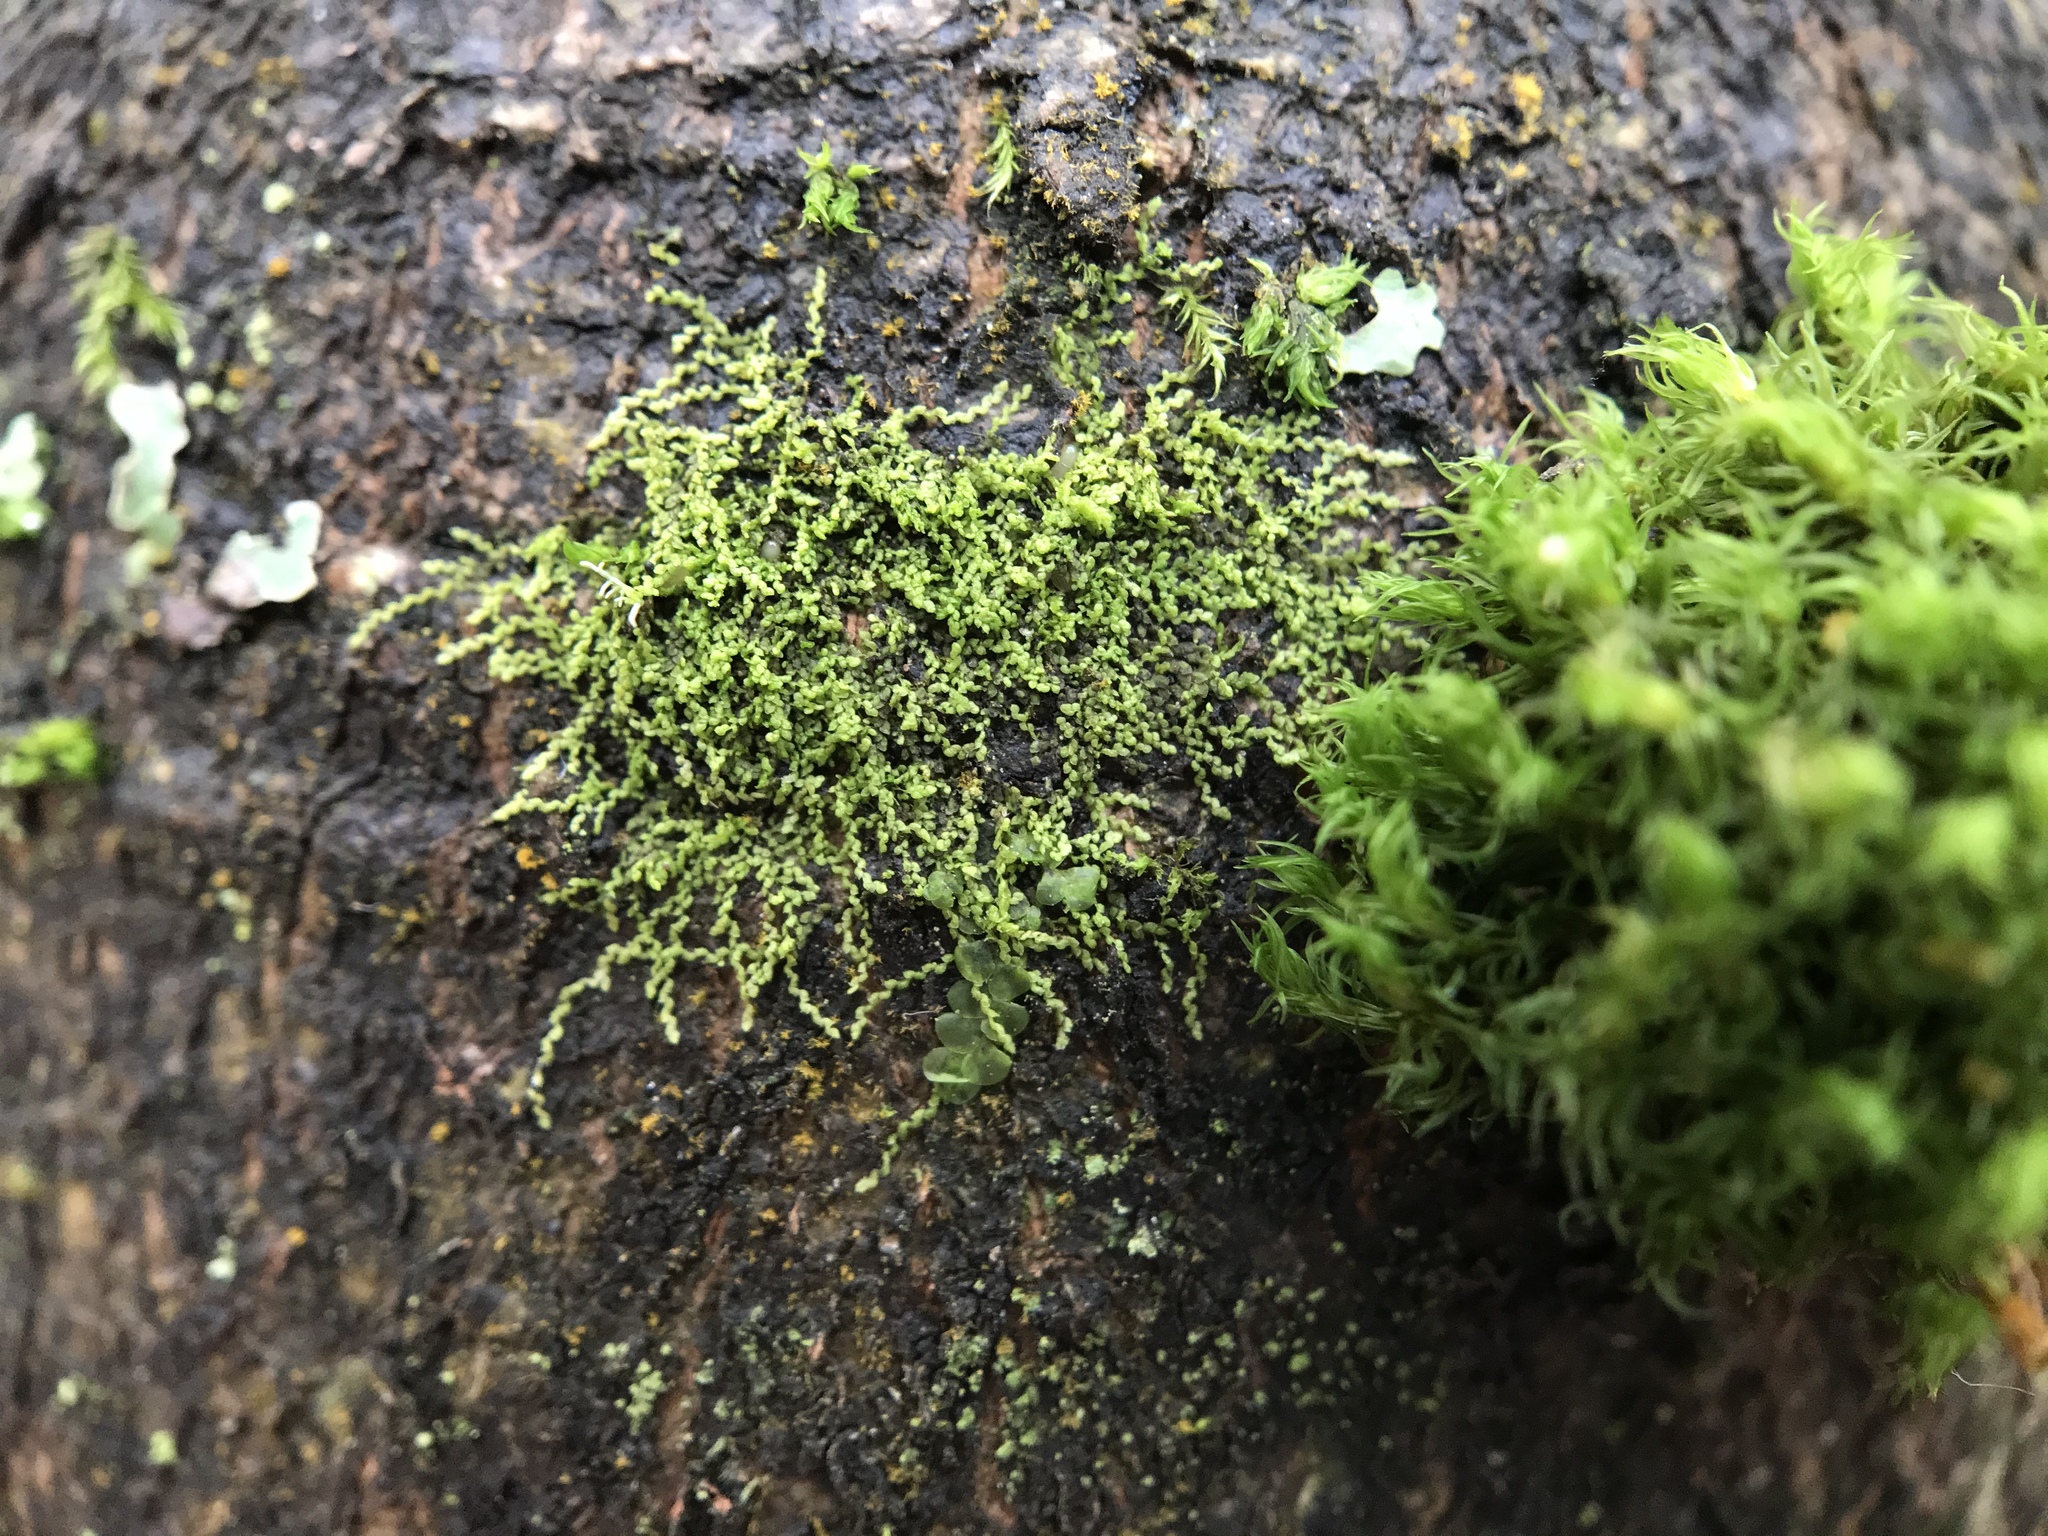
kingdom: Plantae
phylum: Marchantiophyta
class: Jungermanniopsida
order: Porellales
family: Lejeuneaceae
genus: Microlejeunea
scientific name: Microlejeunea ulicina
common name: Fairy beads
